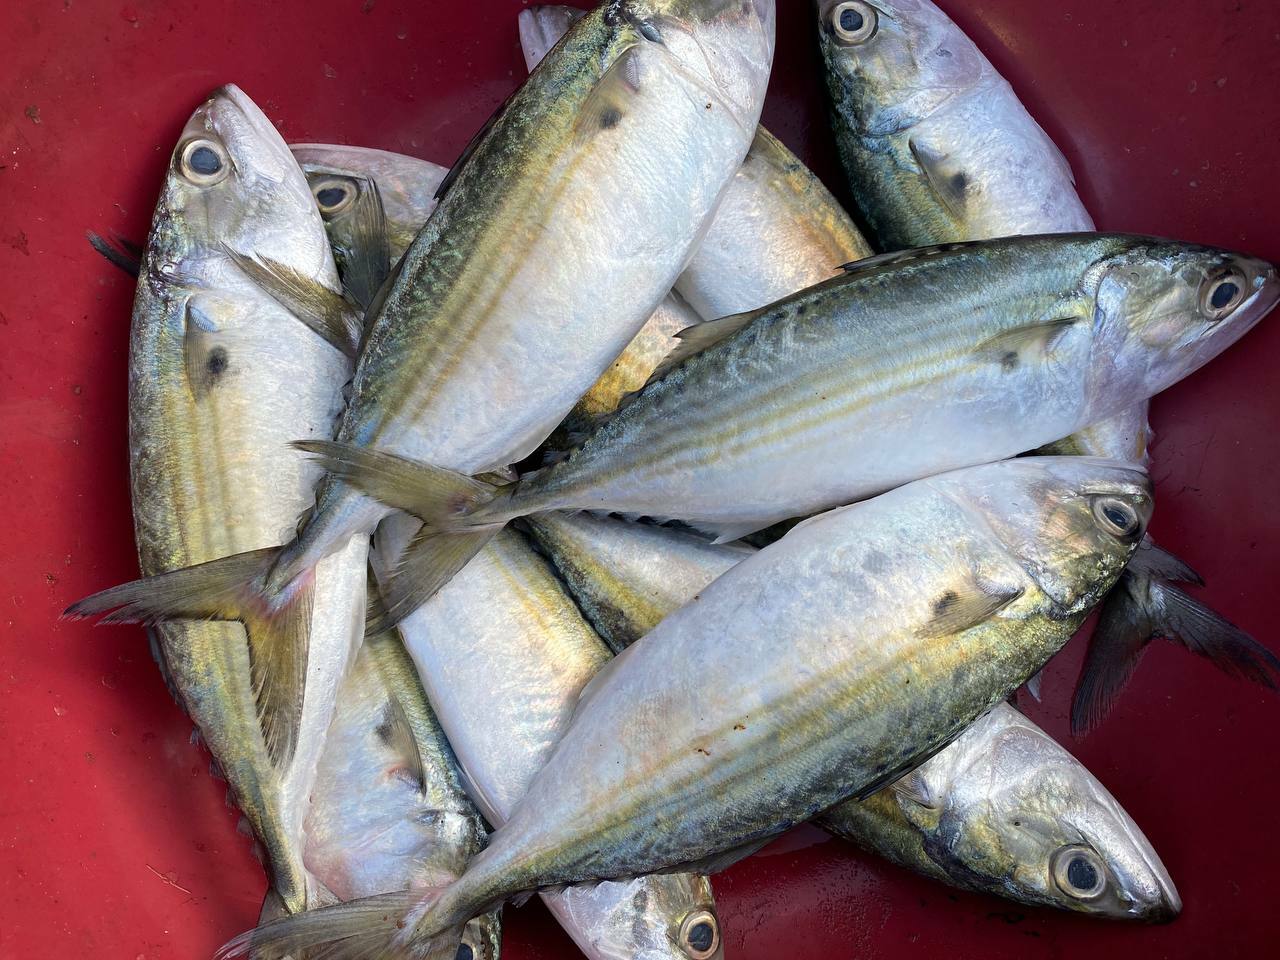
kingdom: Animalia
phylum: Chordata
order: Perciformes
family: Scombridae
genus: Rastrelliger
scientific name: Rastrelliger kanagurta
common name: Indian mackerel
